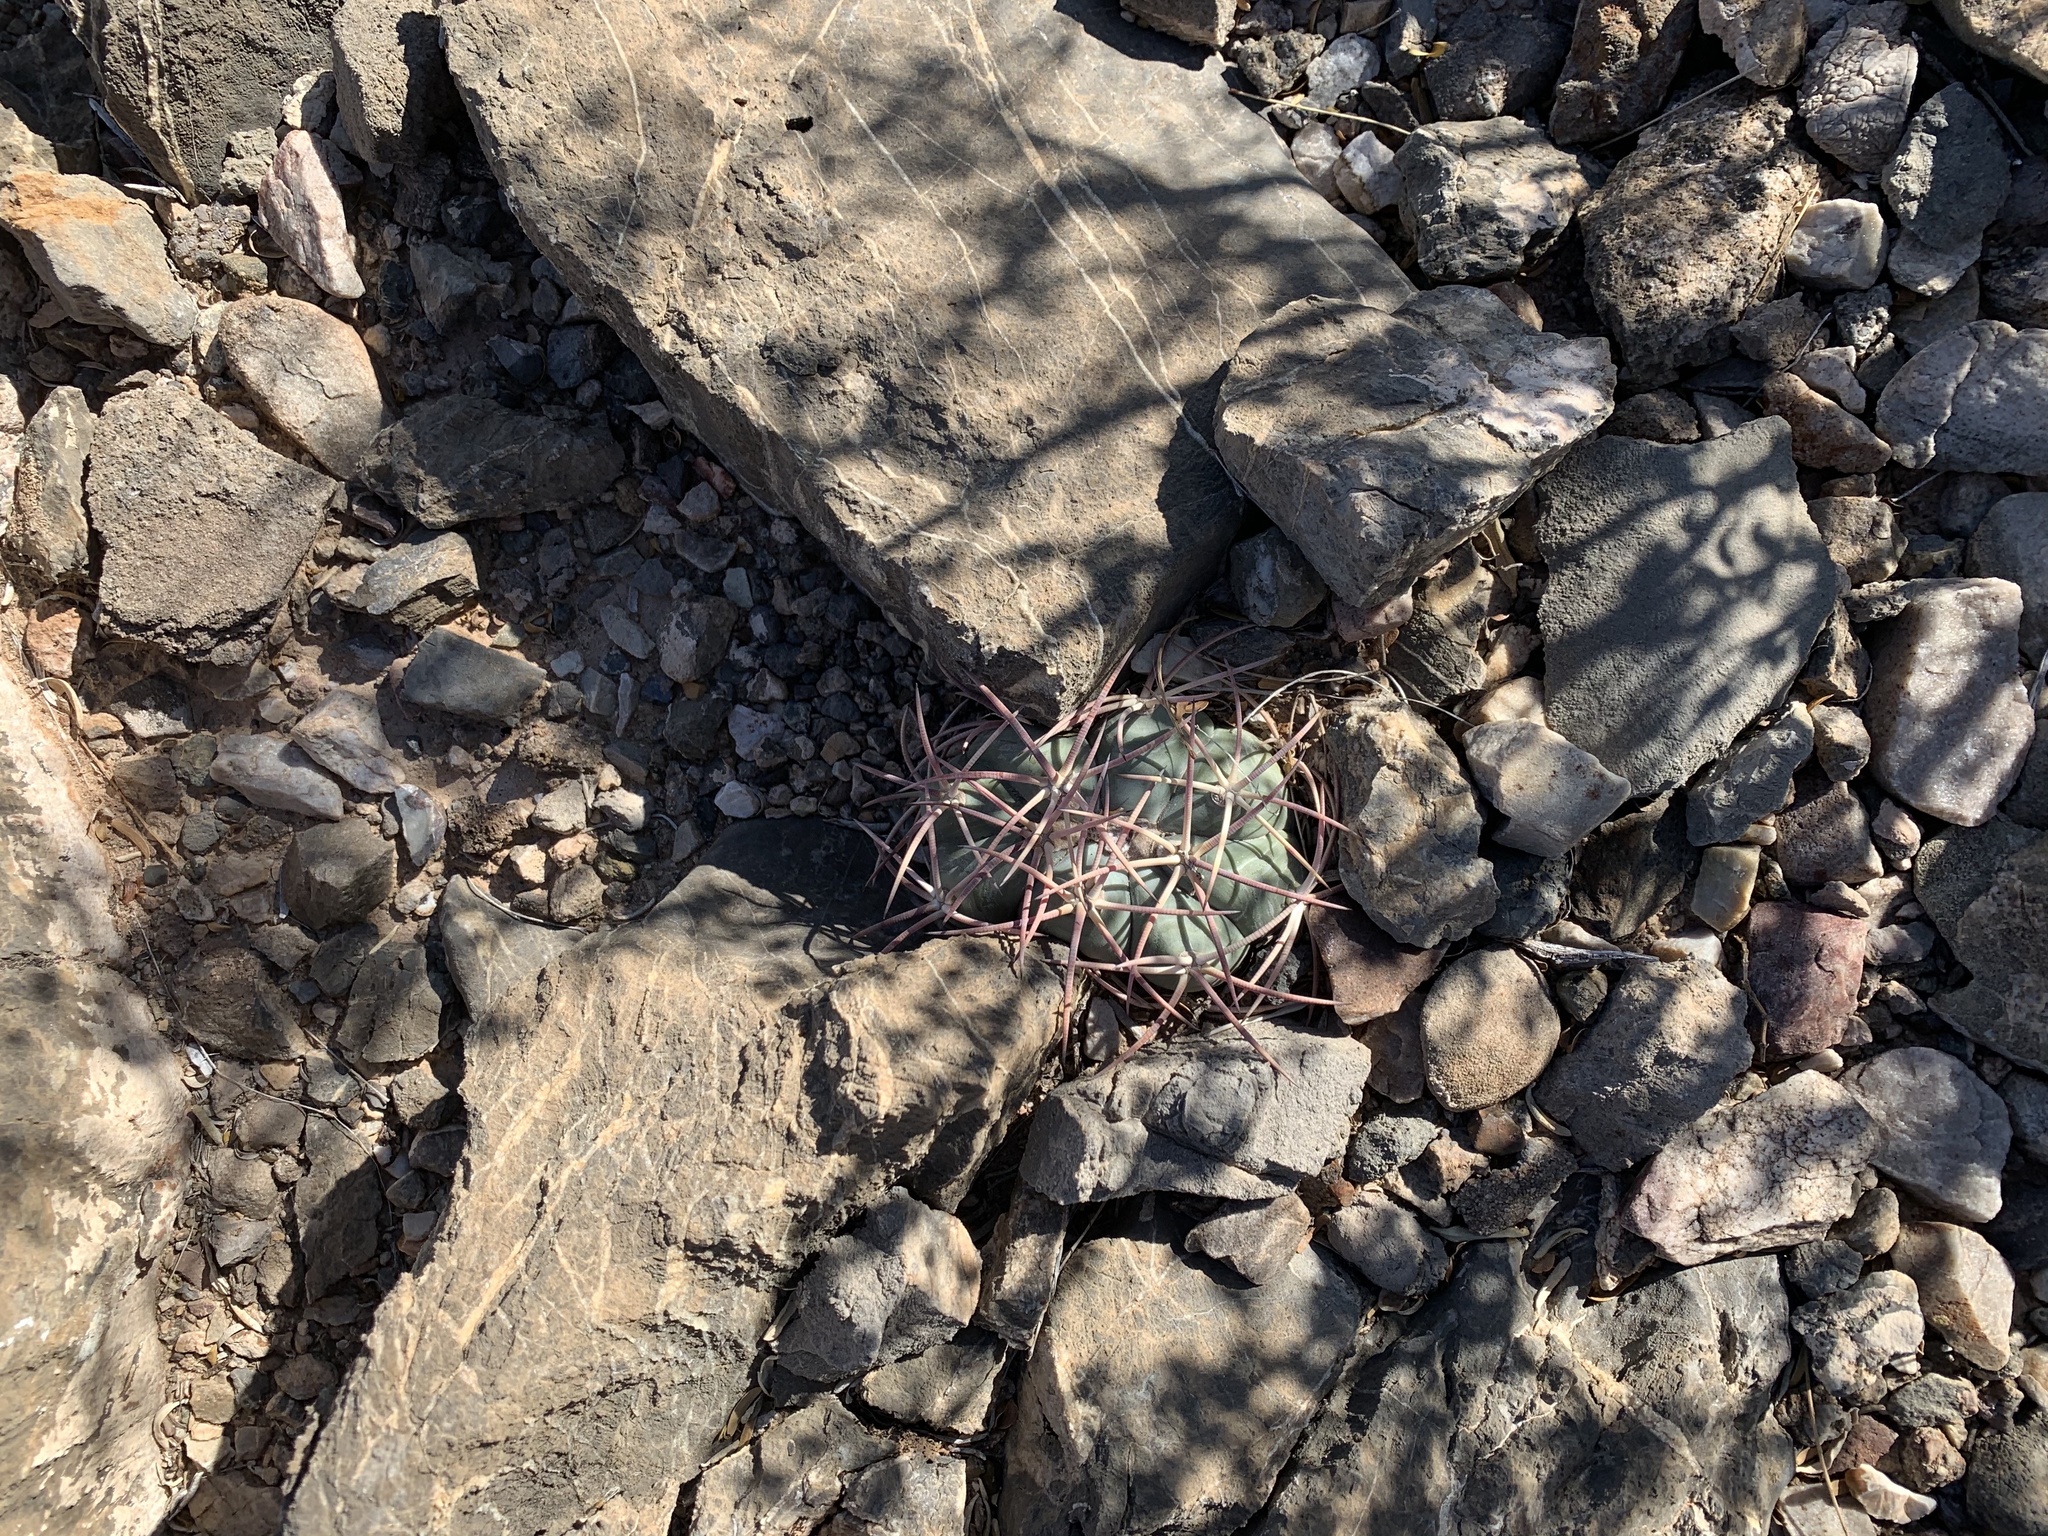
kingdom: Plantae
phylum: Tracheophyta
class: Magnoliopsida
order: Caryophyllales
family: Cactaceae
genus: Echinocactus
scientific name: Echinocactus horizonthalonius
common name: Devilshead
